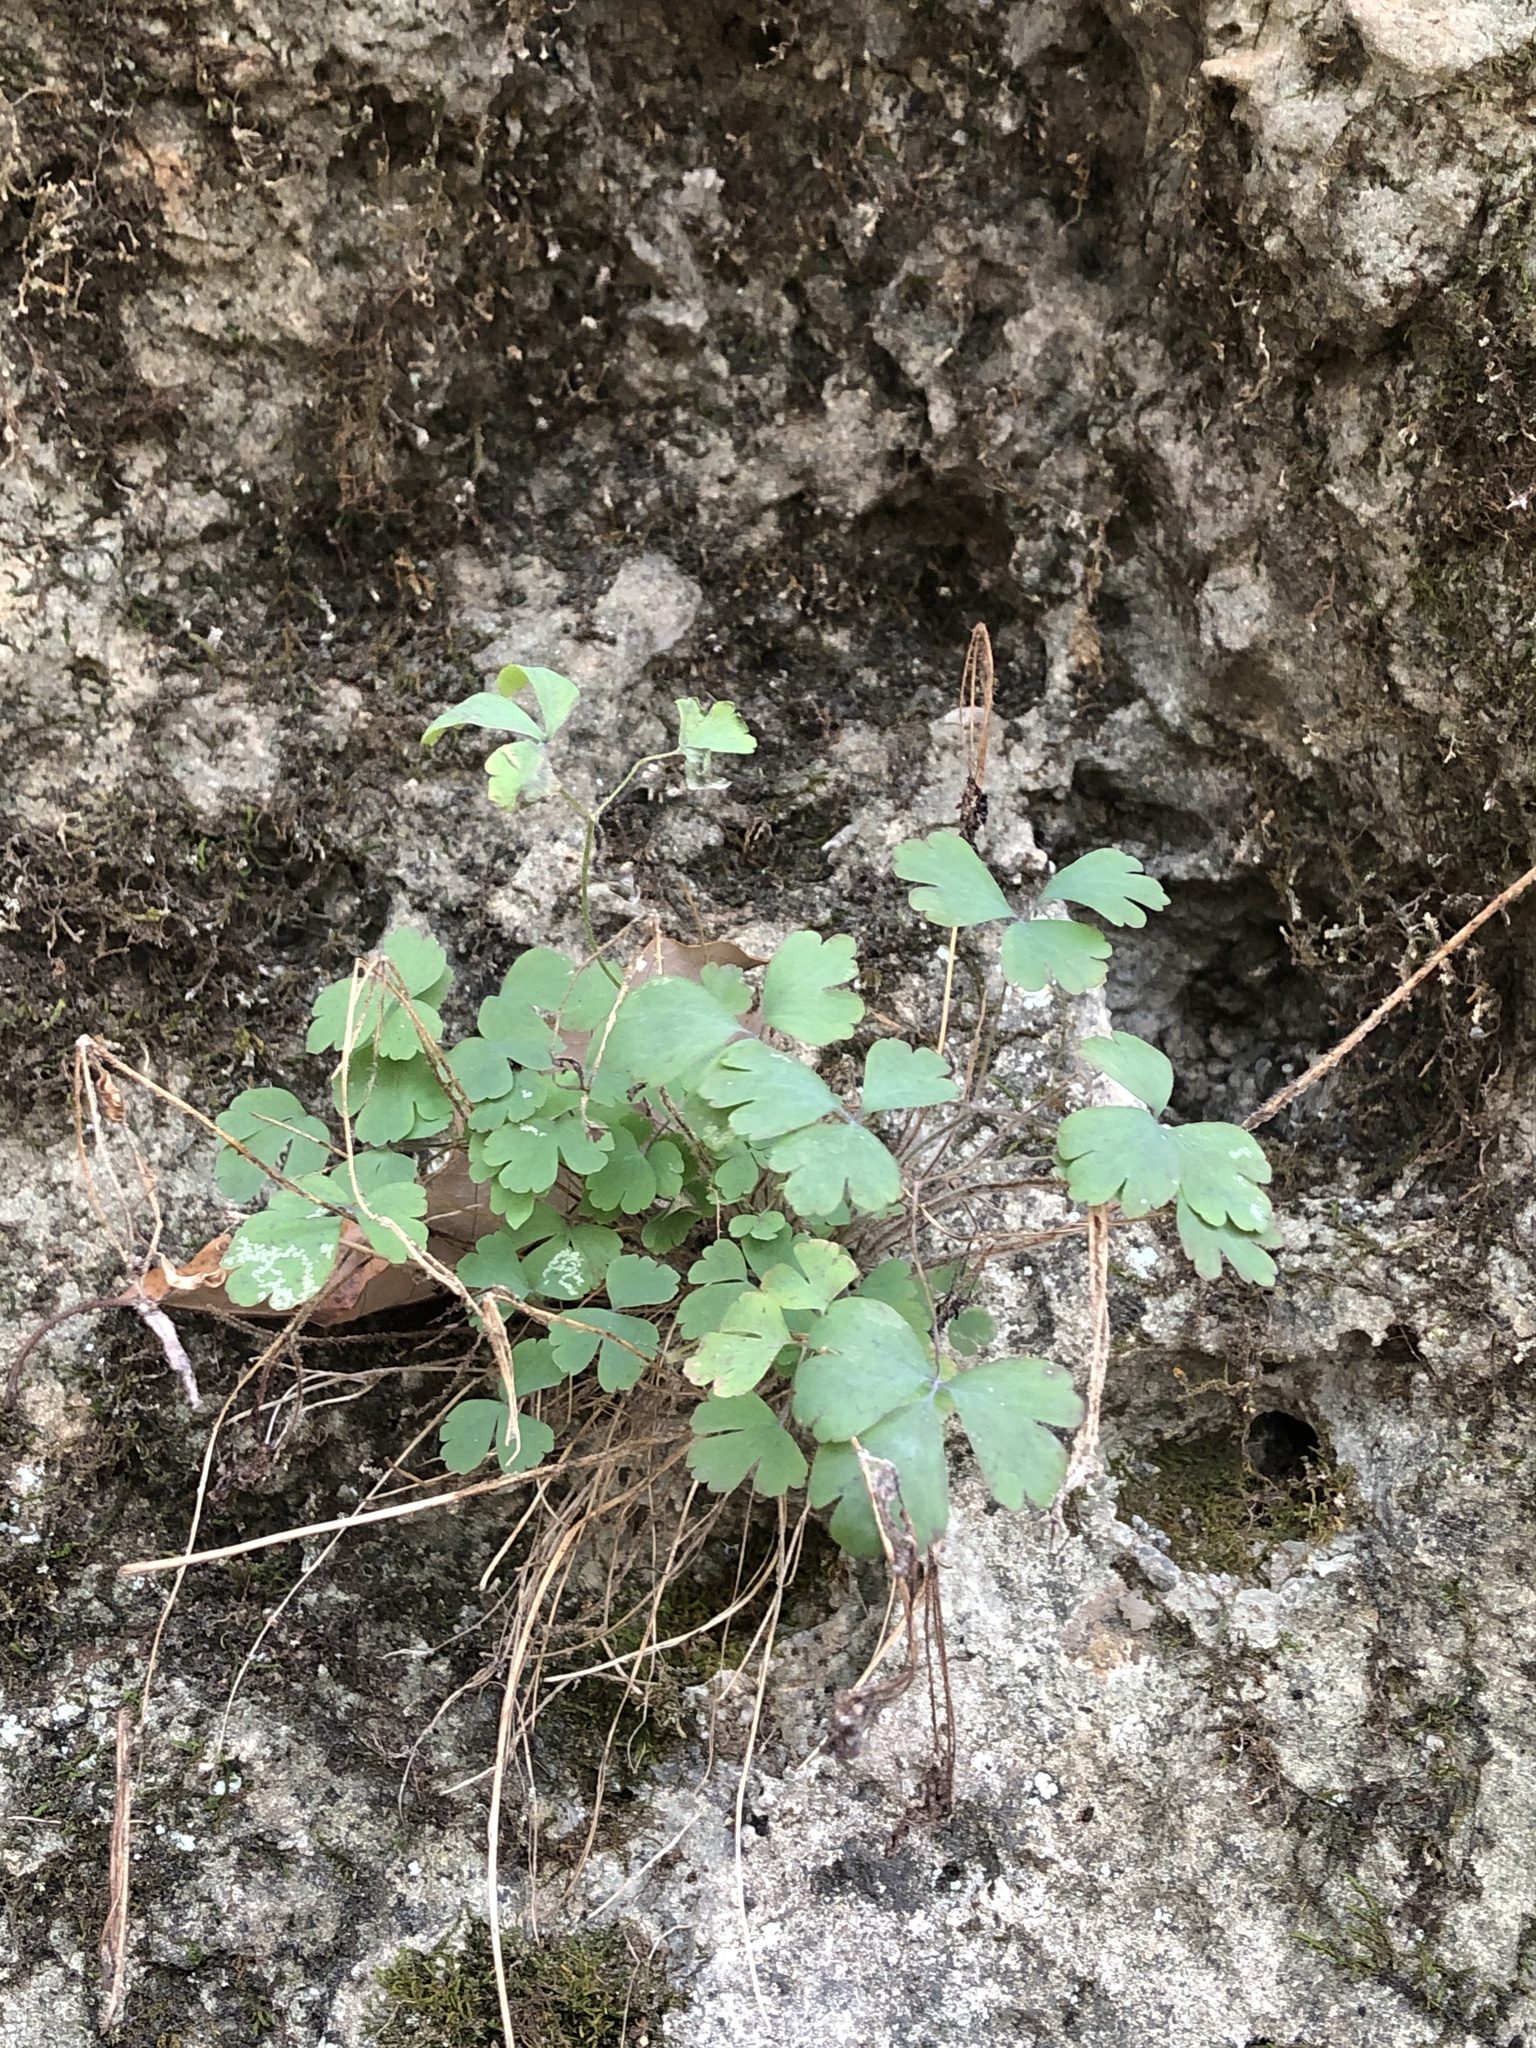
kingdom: Plantae
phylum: Tracheophyta
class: Magnoliopsida
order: Ranunculales
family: Ranunculaceae
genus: Aquilegia
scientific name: Aquilegia canadensis
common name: American columbine
